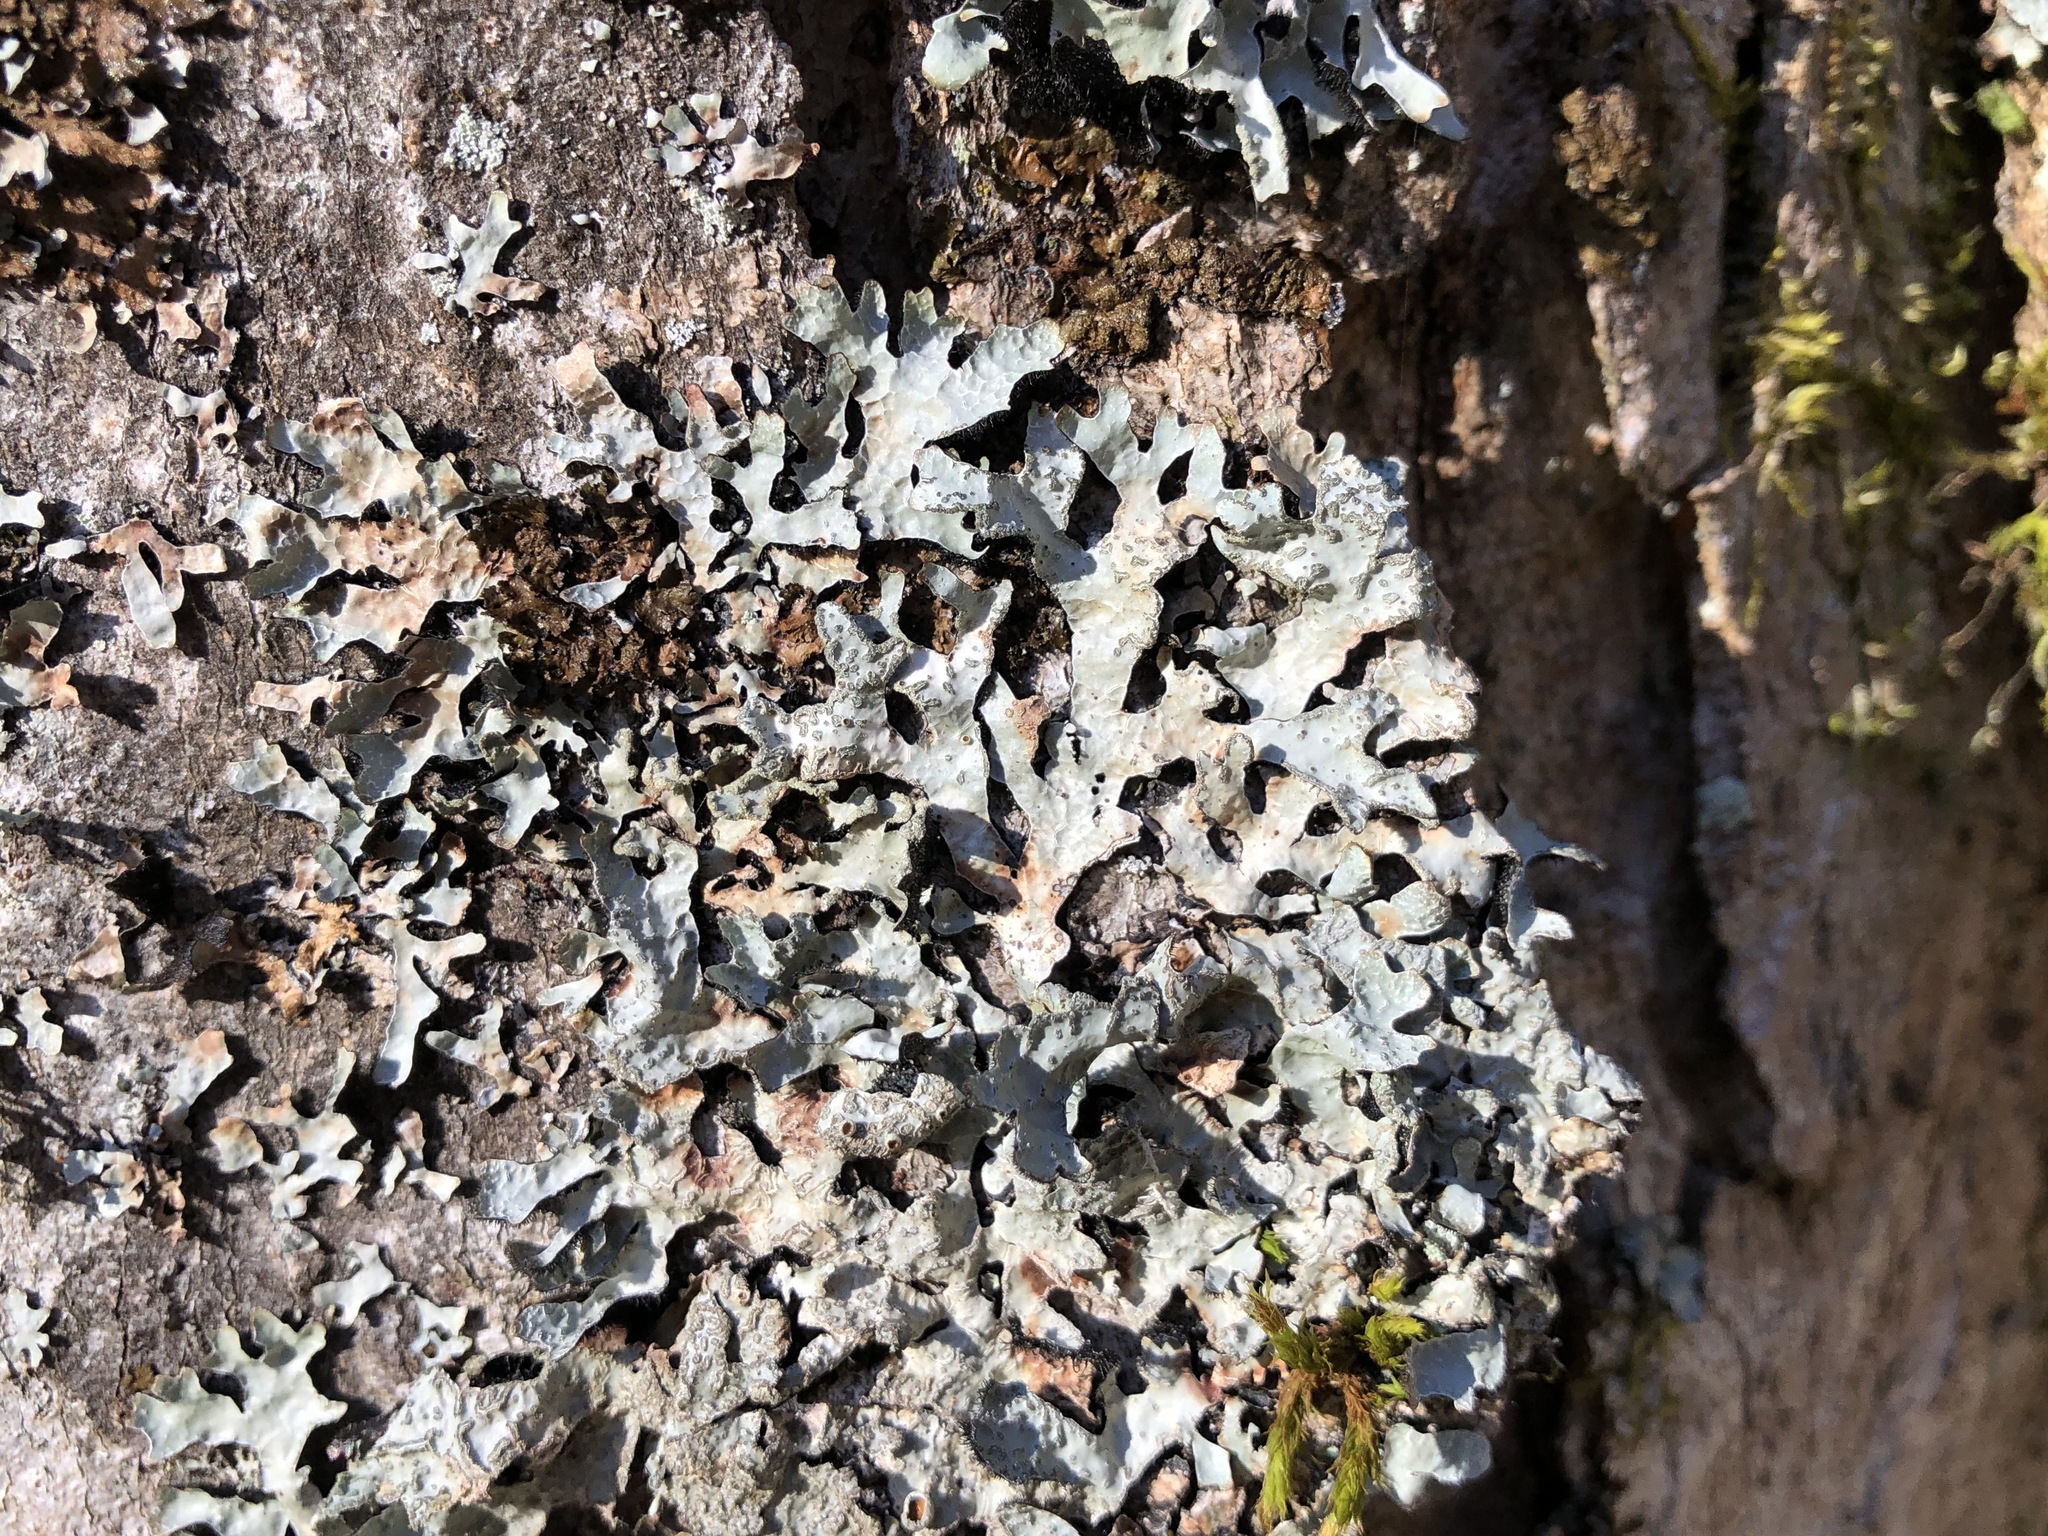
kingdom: Fungi
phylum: Ascomycota
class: Lecanoromycetes
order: Lecanorales
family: Parmeliaceae
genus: Parmelia
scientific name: Parmelia sulcata
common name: Netted shield lichen
